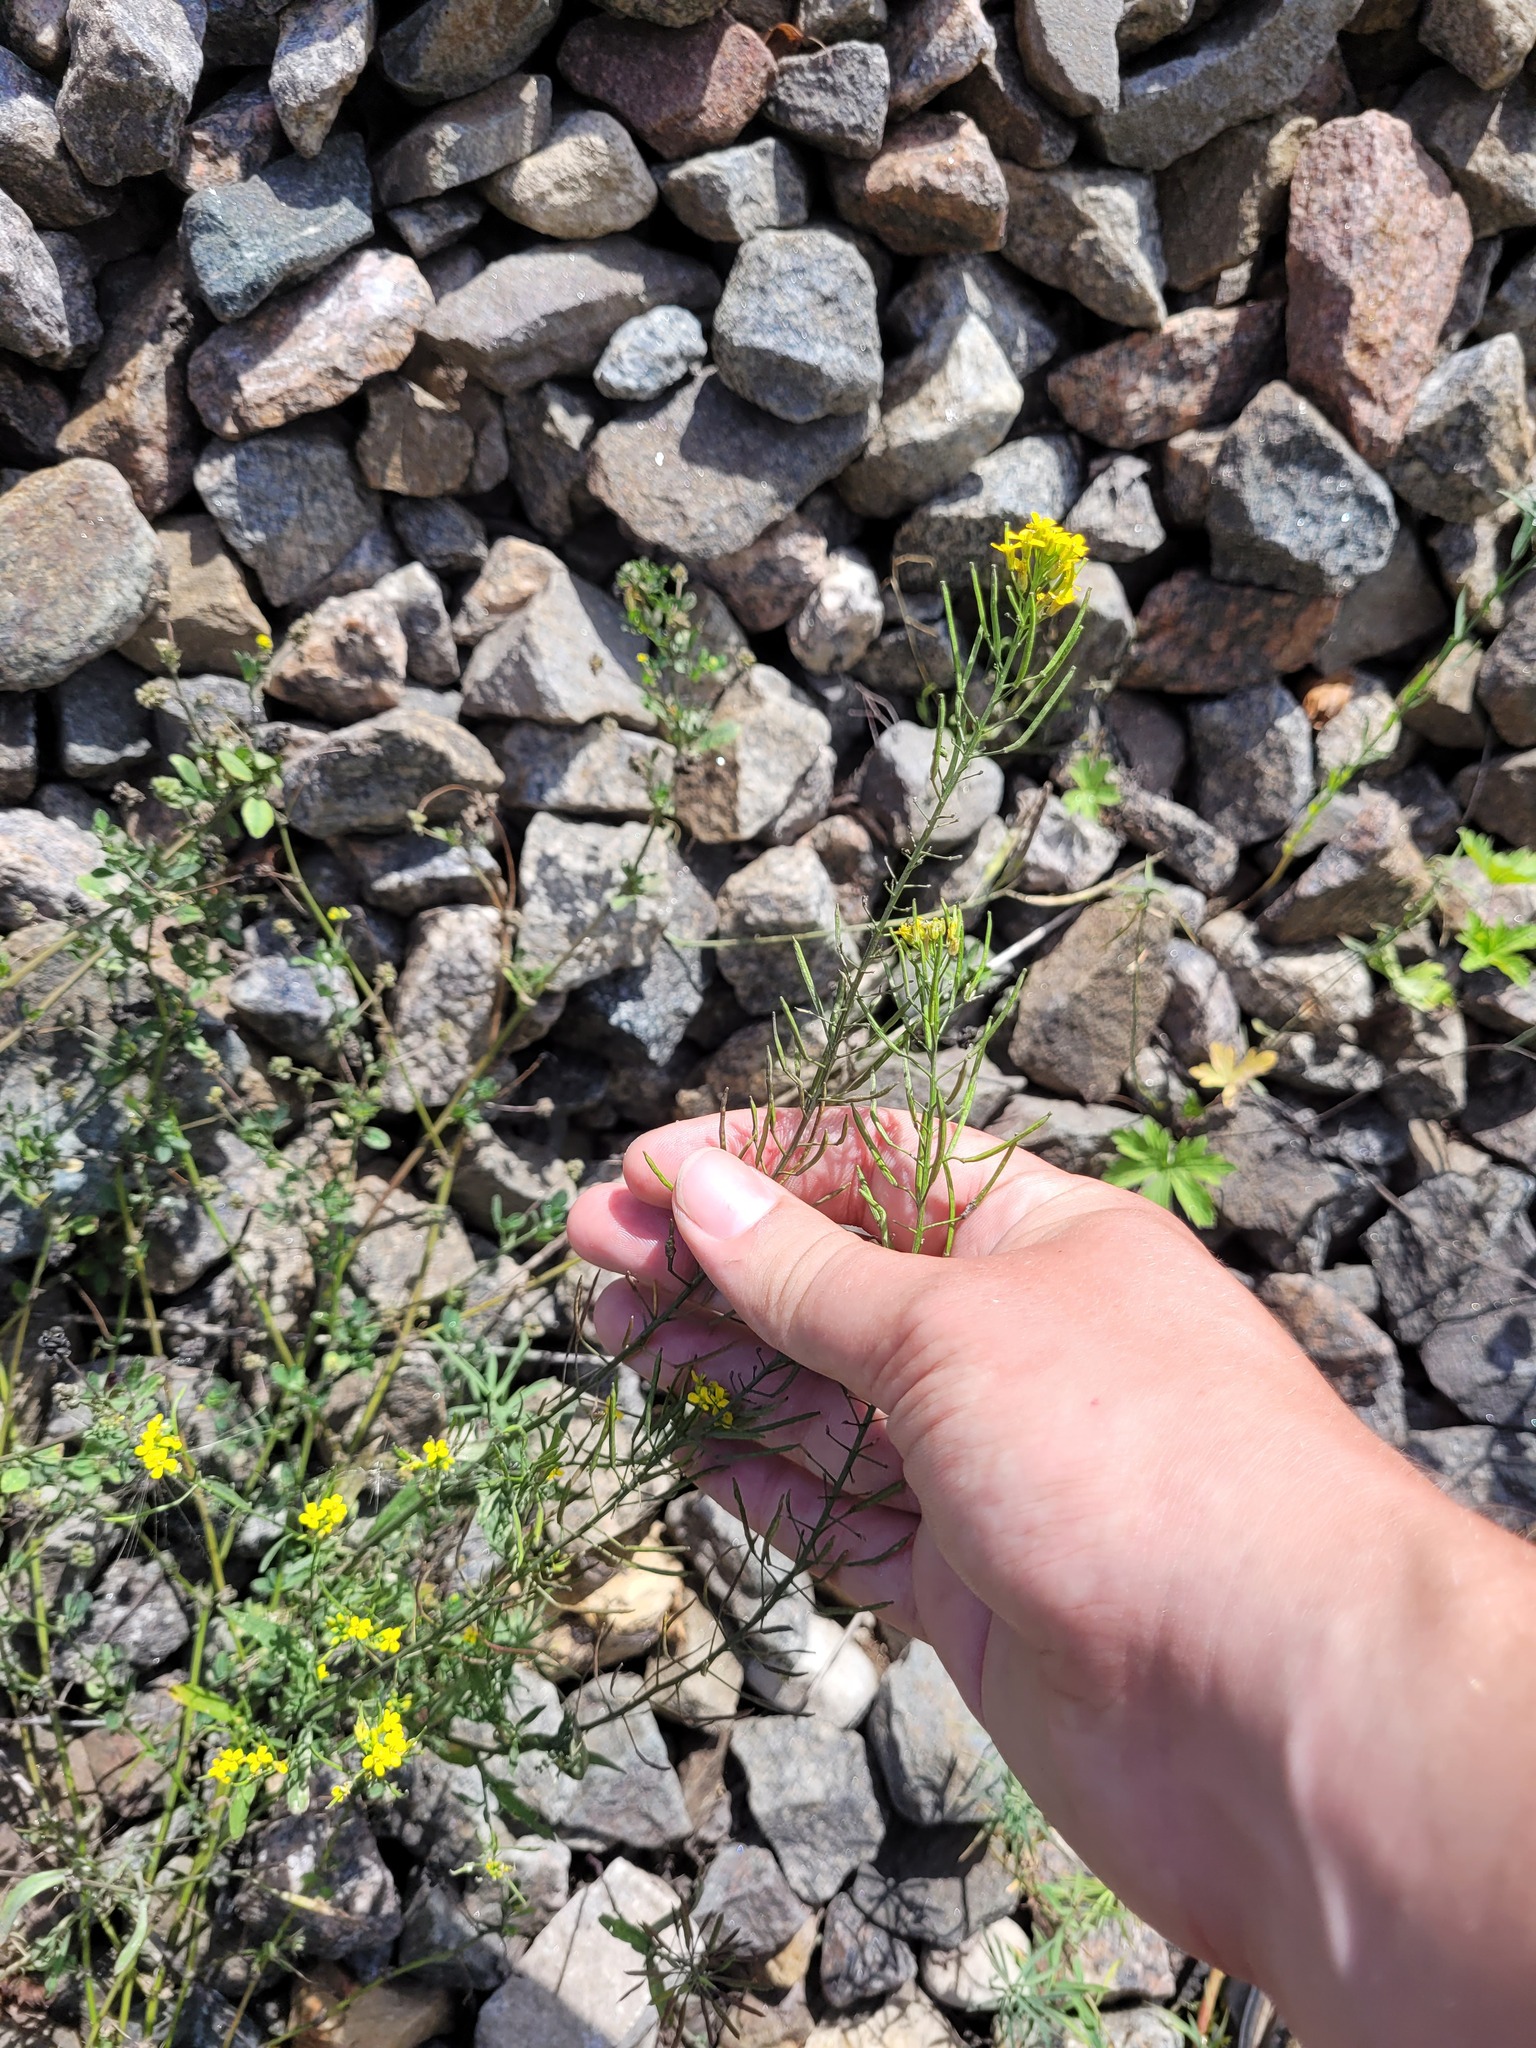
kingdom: Plantae
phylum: Tracheophyta
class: Magnoliopsida
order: Brassicales
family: Brassicaceae
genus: Erysimum
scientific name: Erysimum cheiranthoides
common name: Treacle mustard
